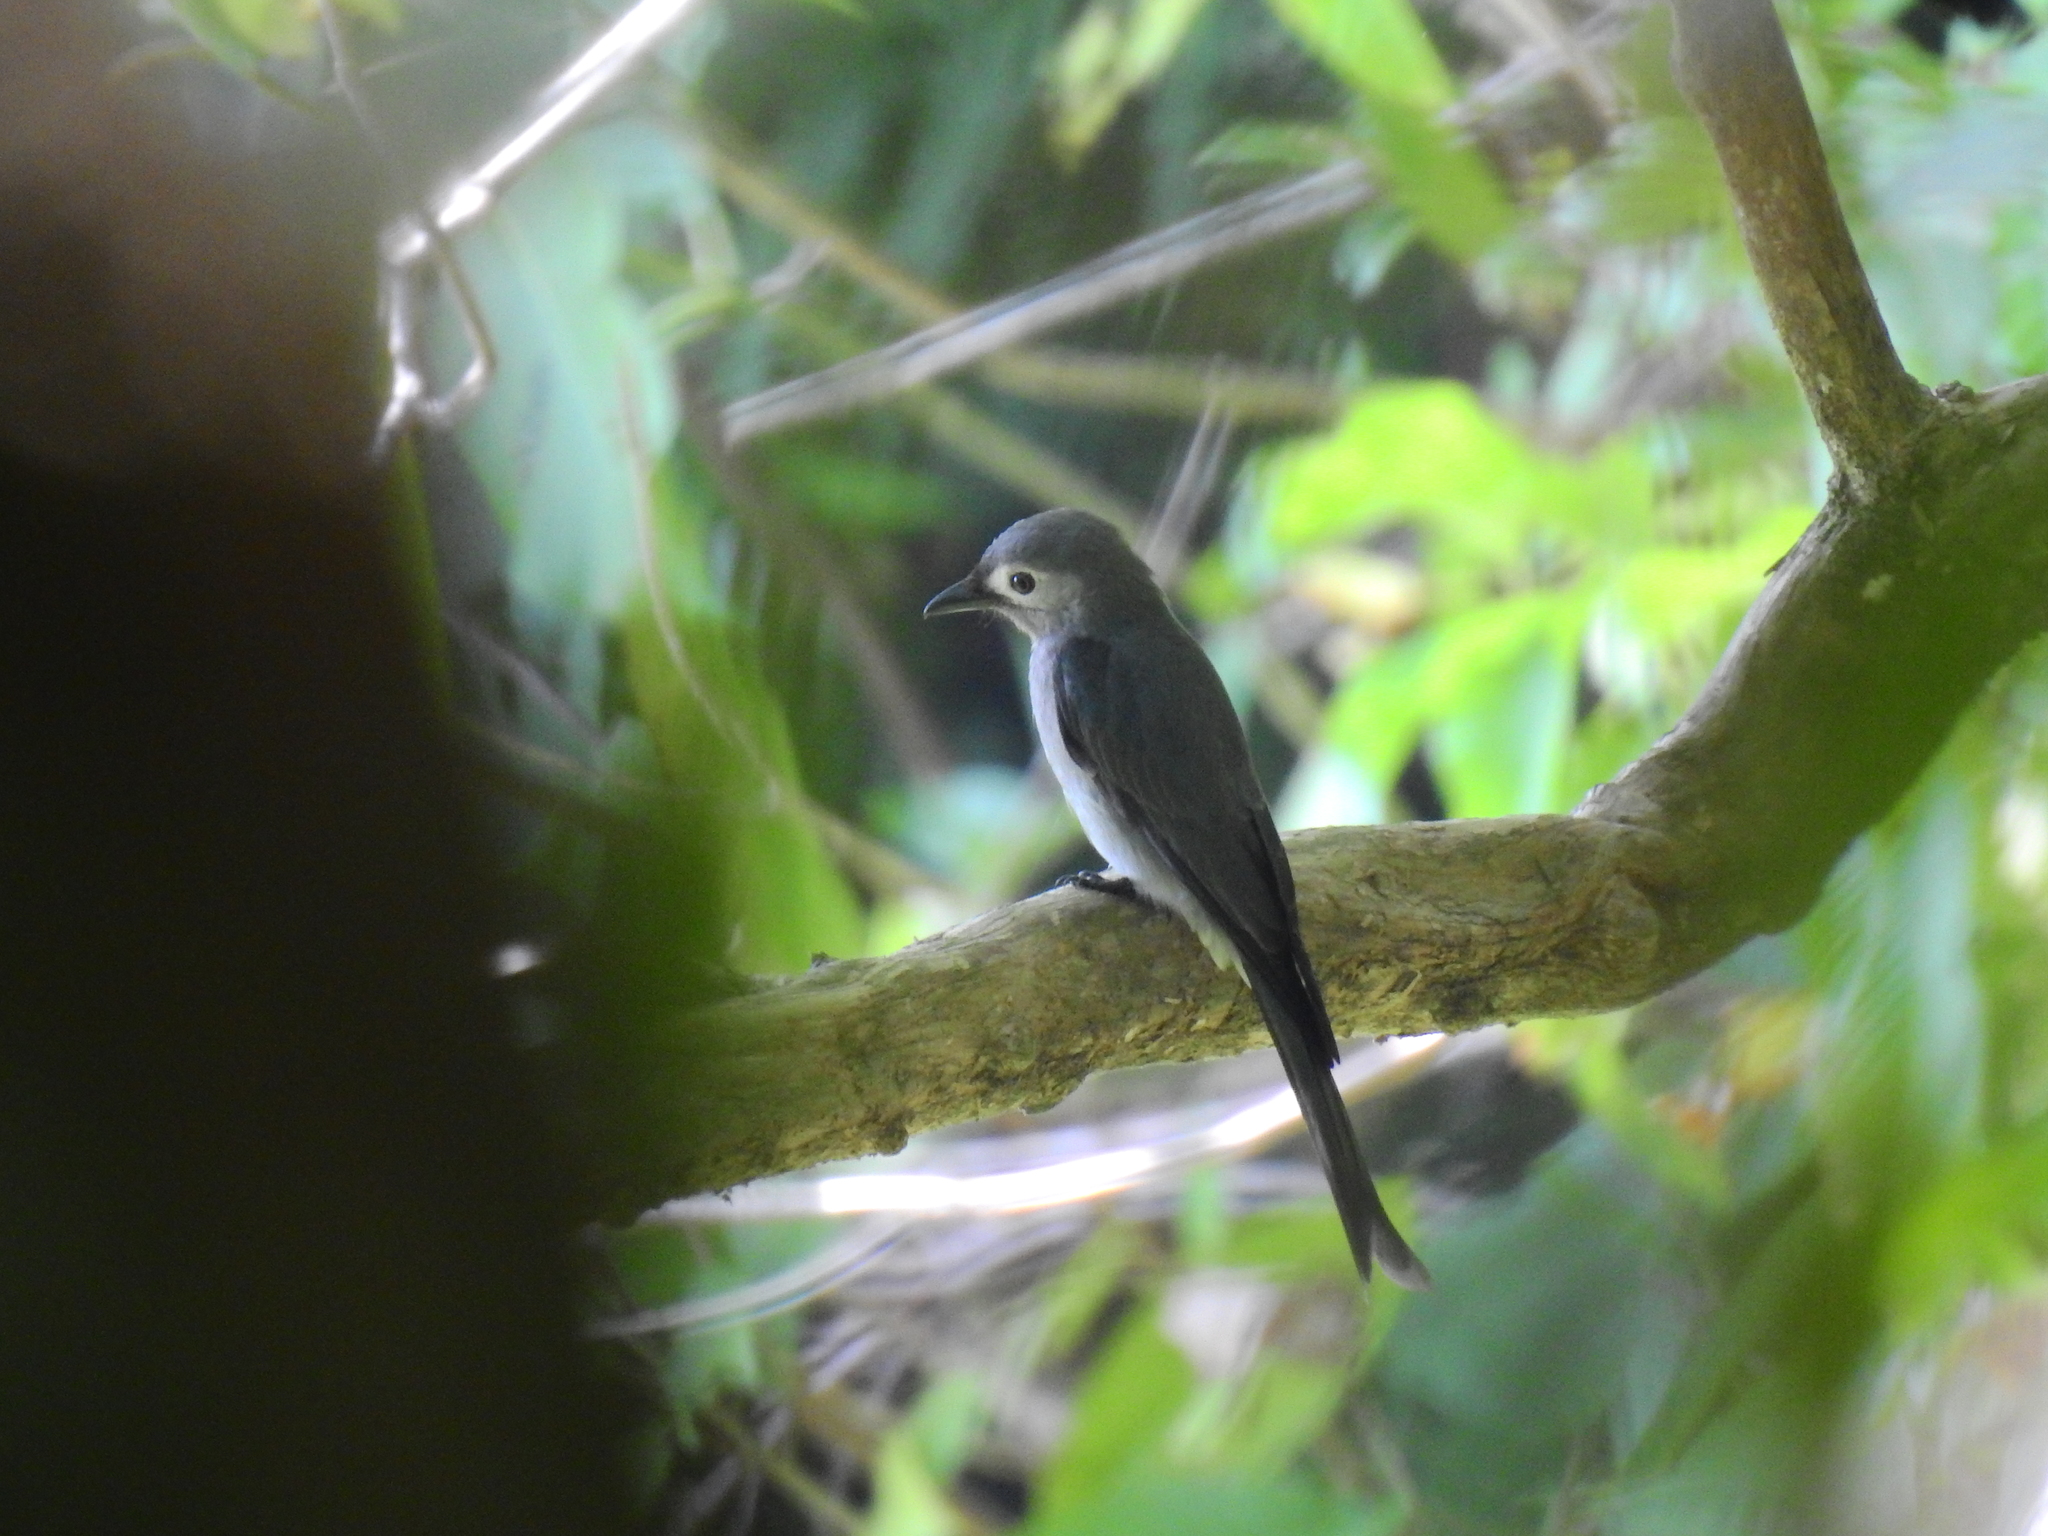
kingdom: Animalia
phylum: Chordata
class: Aves
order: Passeriformes
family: Dicruridae
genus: Dicrurus
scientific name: Dicrurus leucophaeus
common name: Ashy drongo
